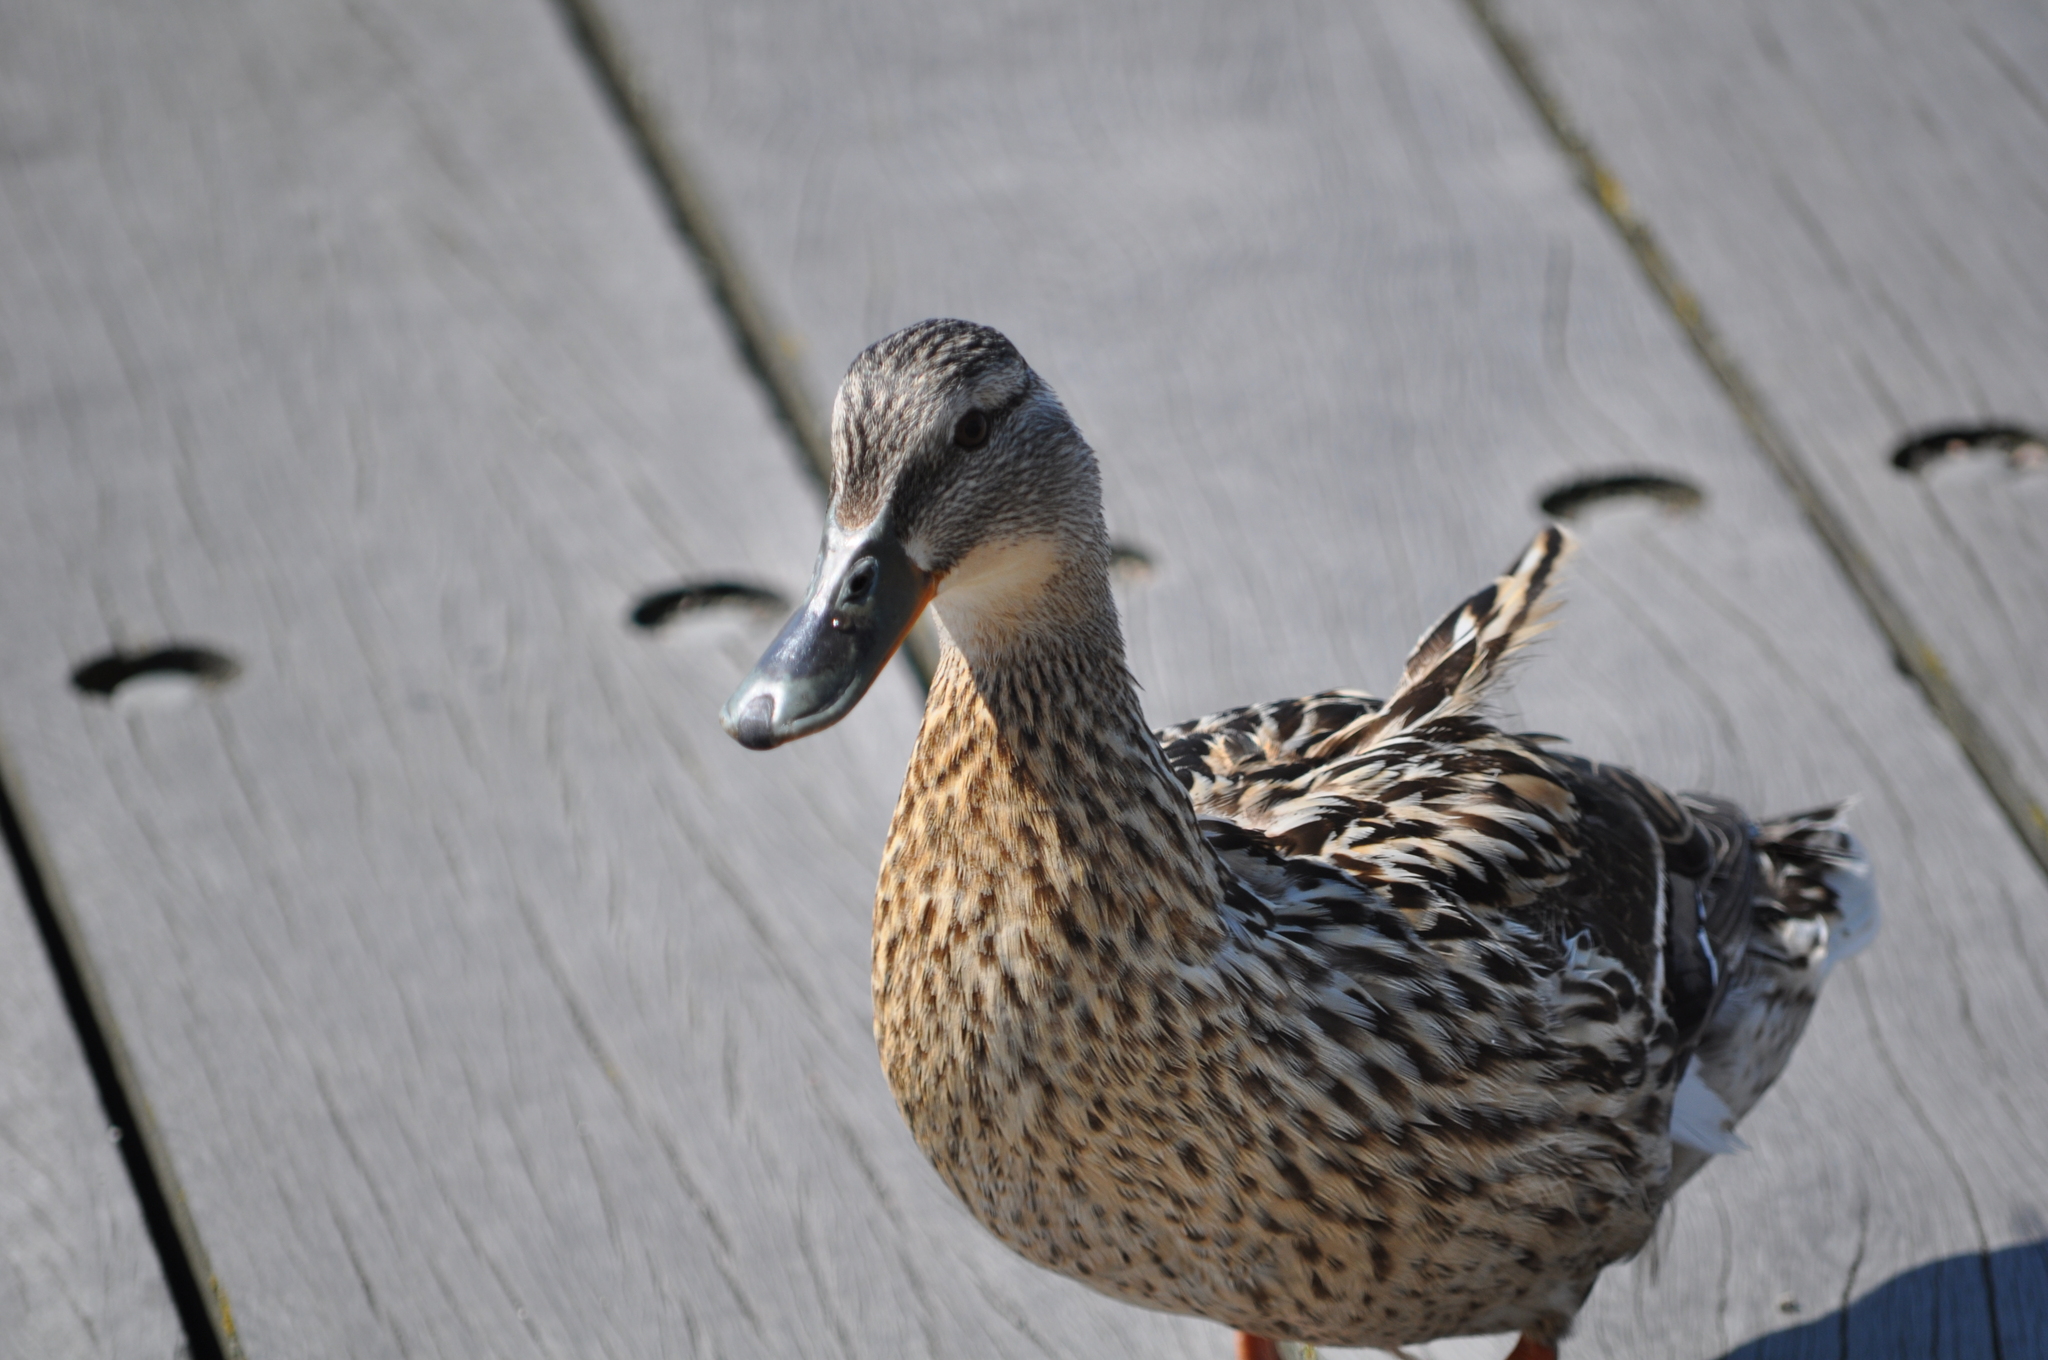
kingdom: Animalia
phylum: Chordata
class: Aves
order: Anseriformes
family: Anatidae
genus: Anas
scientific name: Anas platyrhynchos
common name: Mallard
